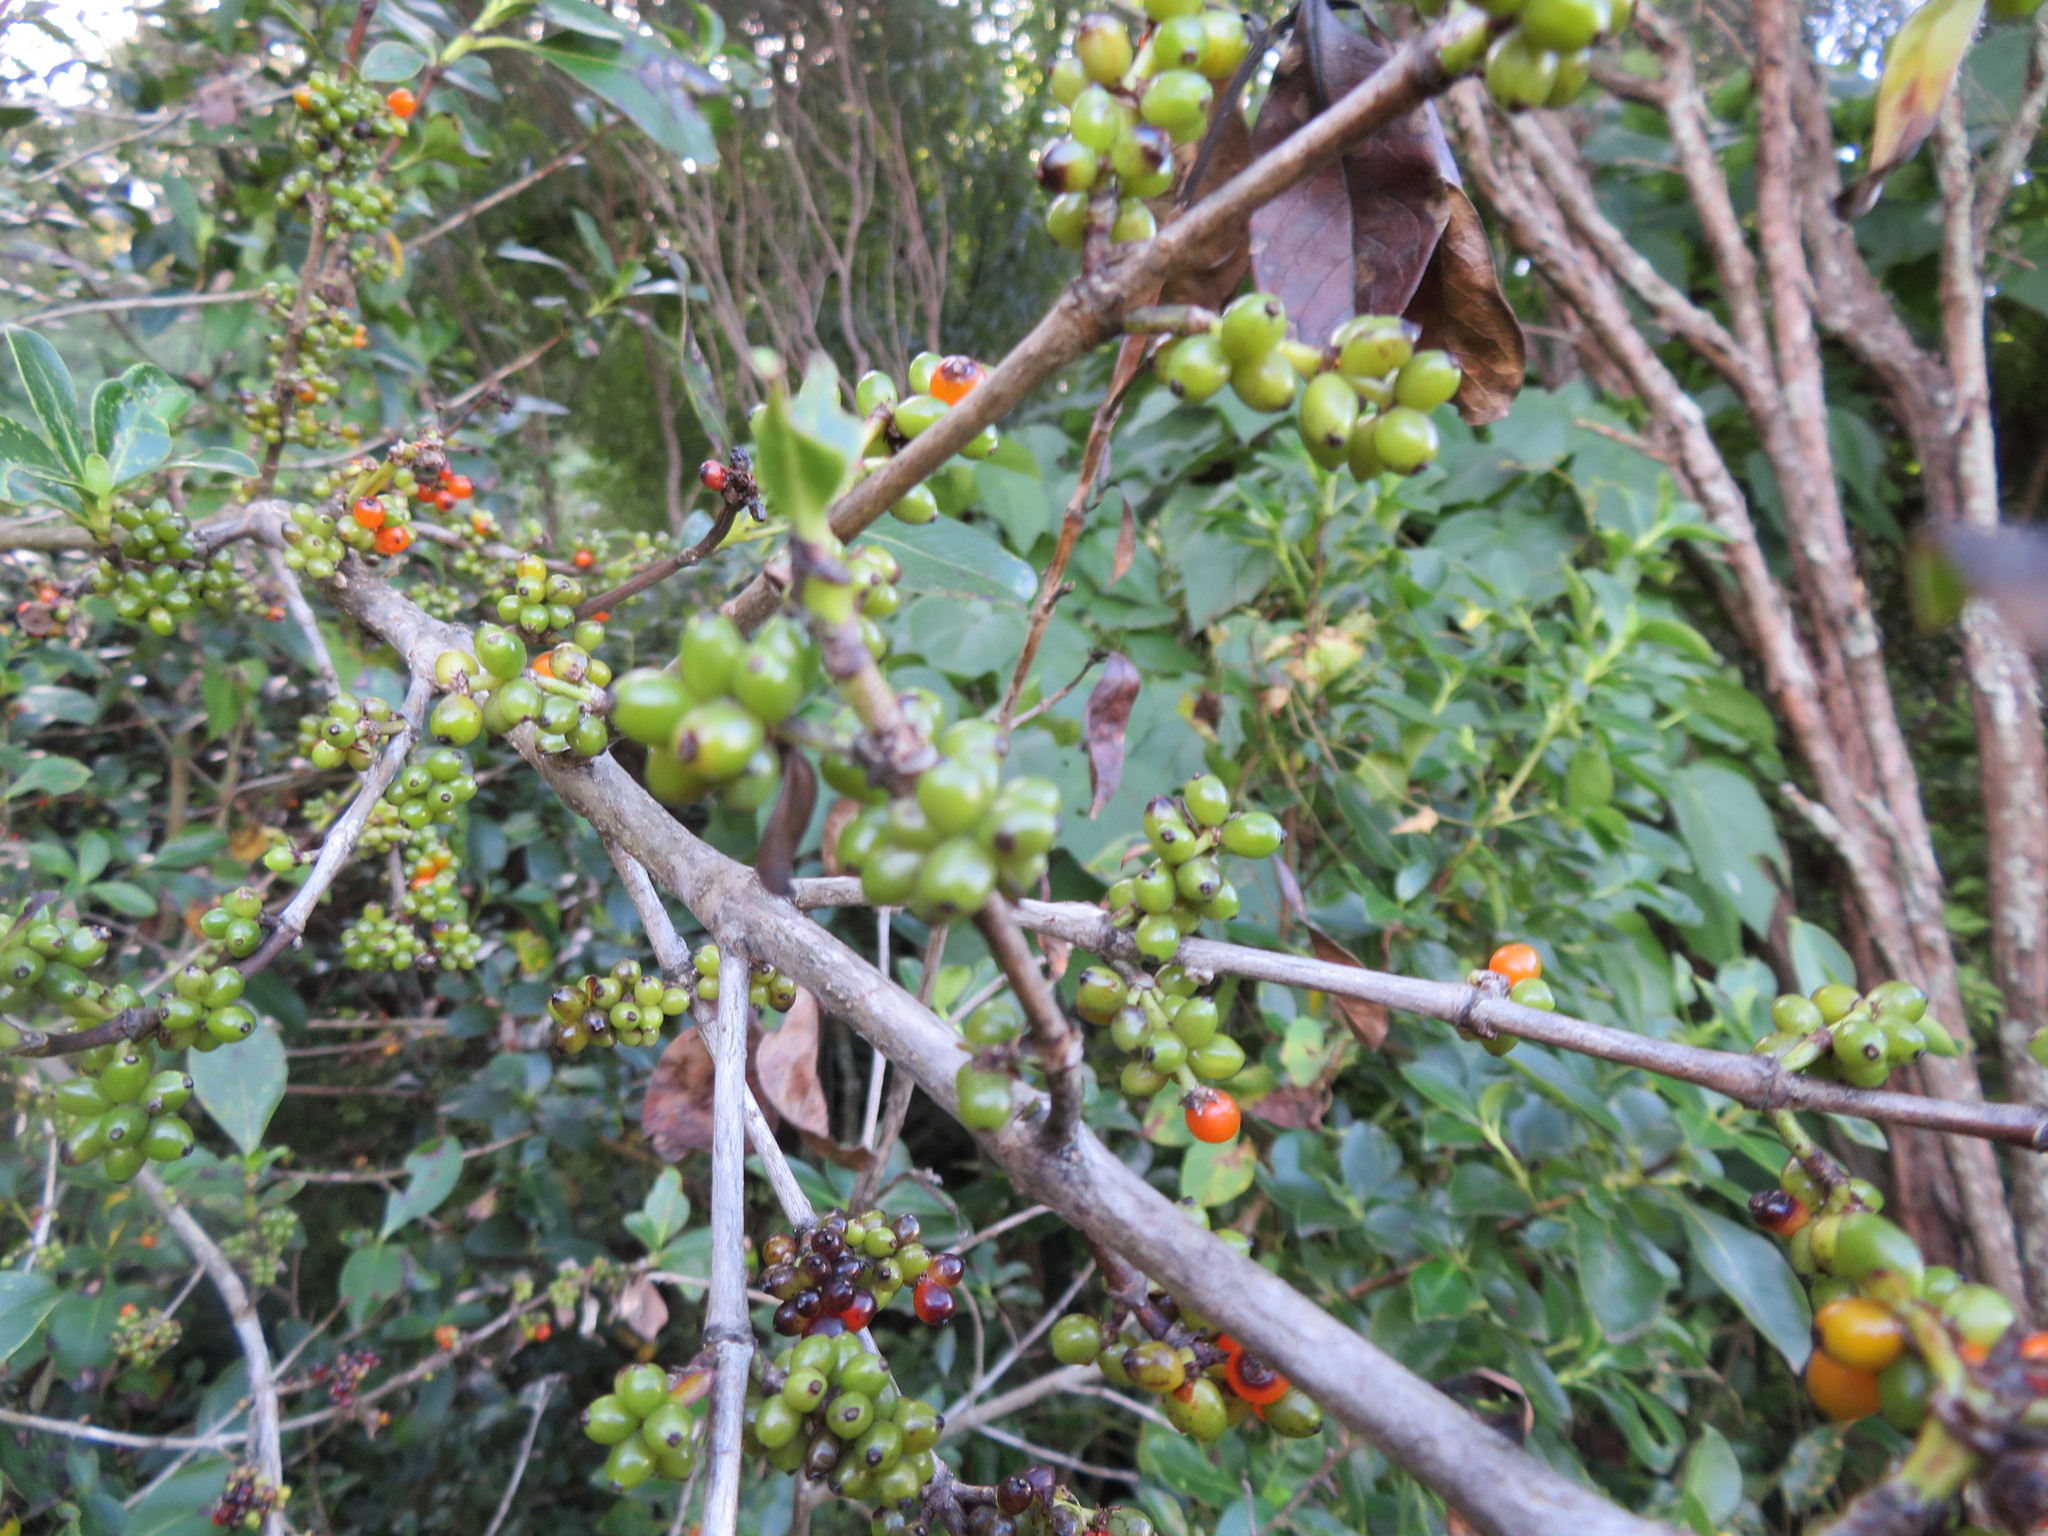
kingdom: Plantae
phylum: Tracheophyta
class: Magnoliopsida
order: Gentianales
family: Rubiaceae
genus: Coprosma
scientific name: Coprosma robusta
